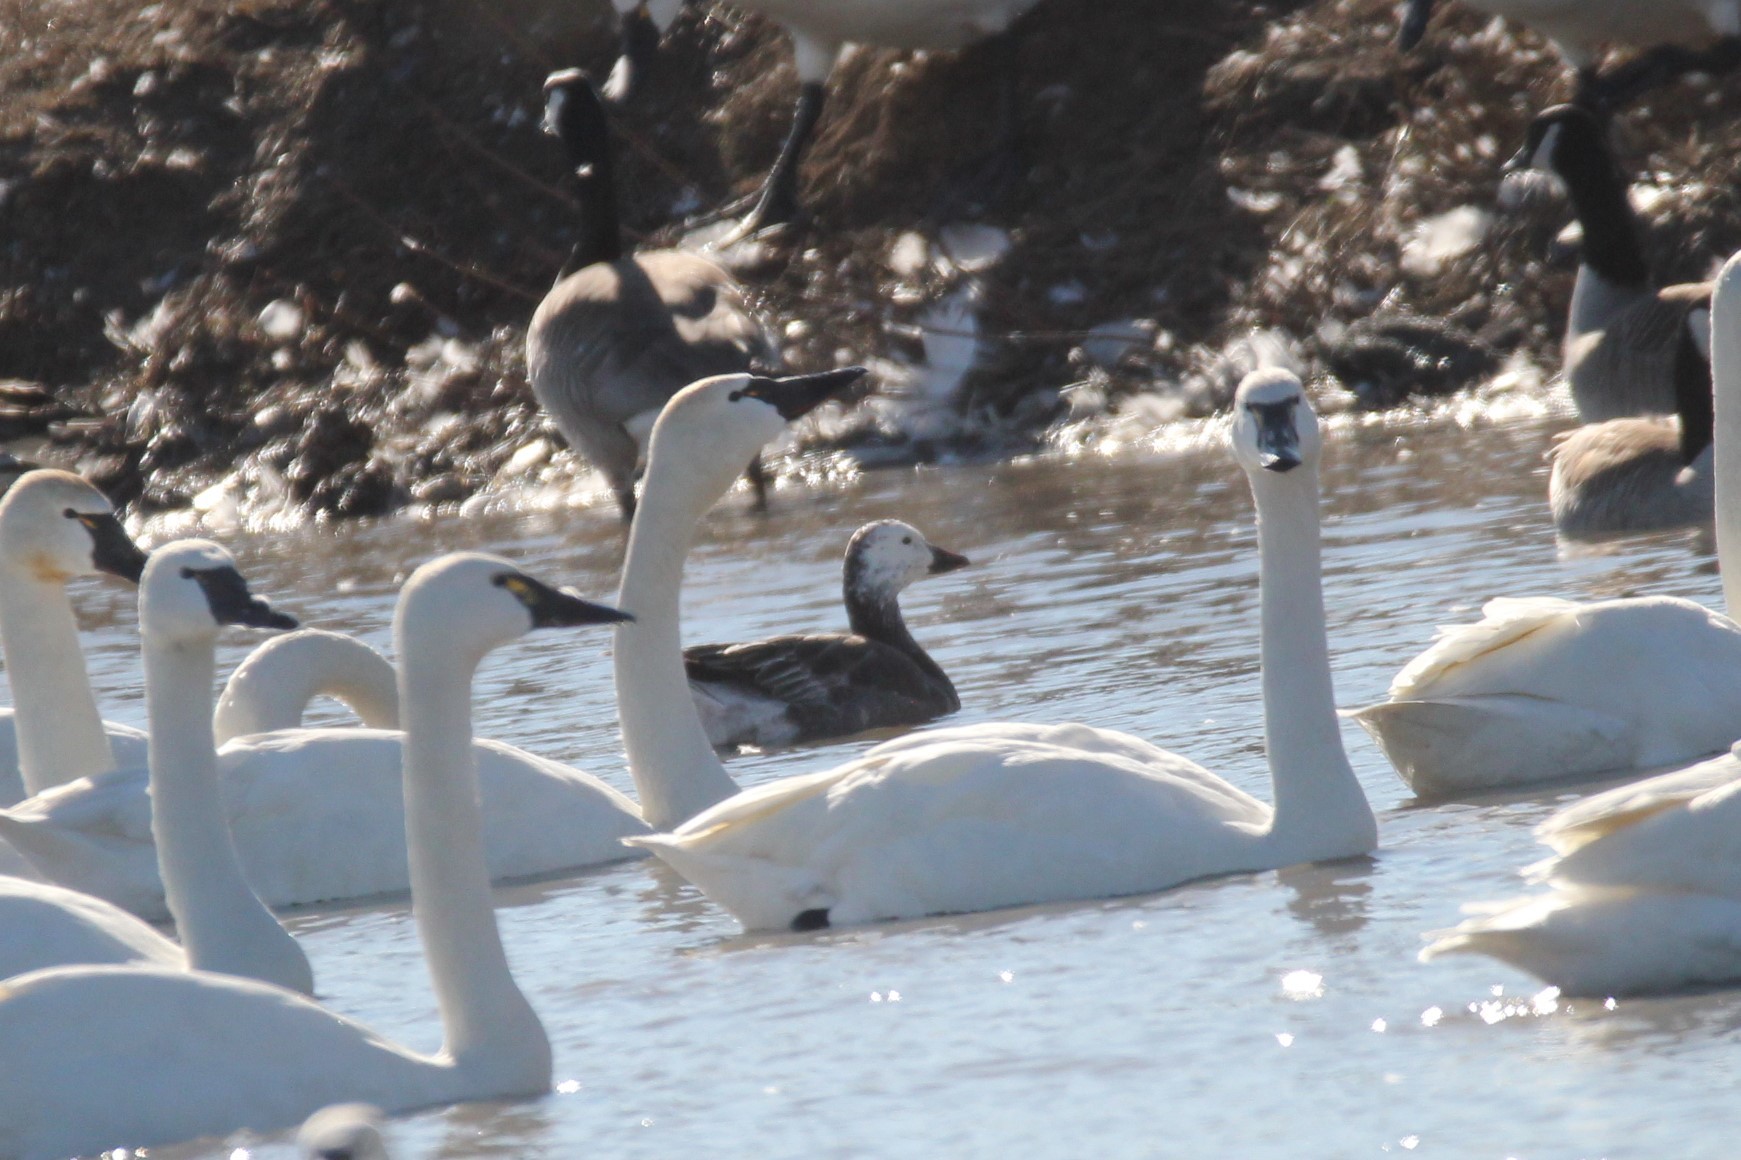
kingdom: Animalia
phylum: Chordata
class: Aves
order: Anseriformes
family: Anatidae
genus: Anser
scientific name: Anser caerulescens
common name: Snow goose
